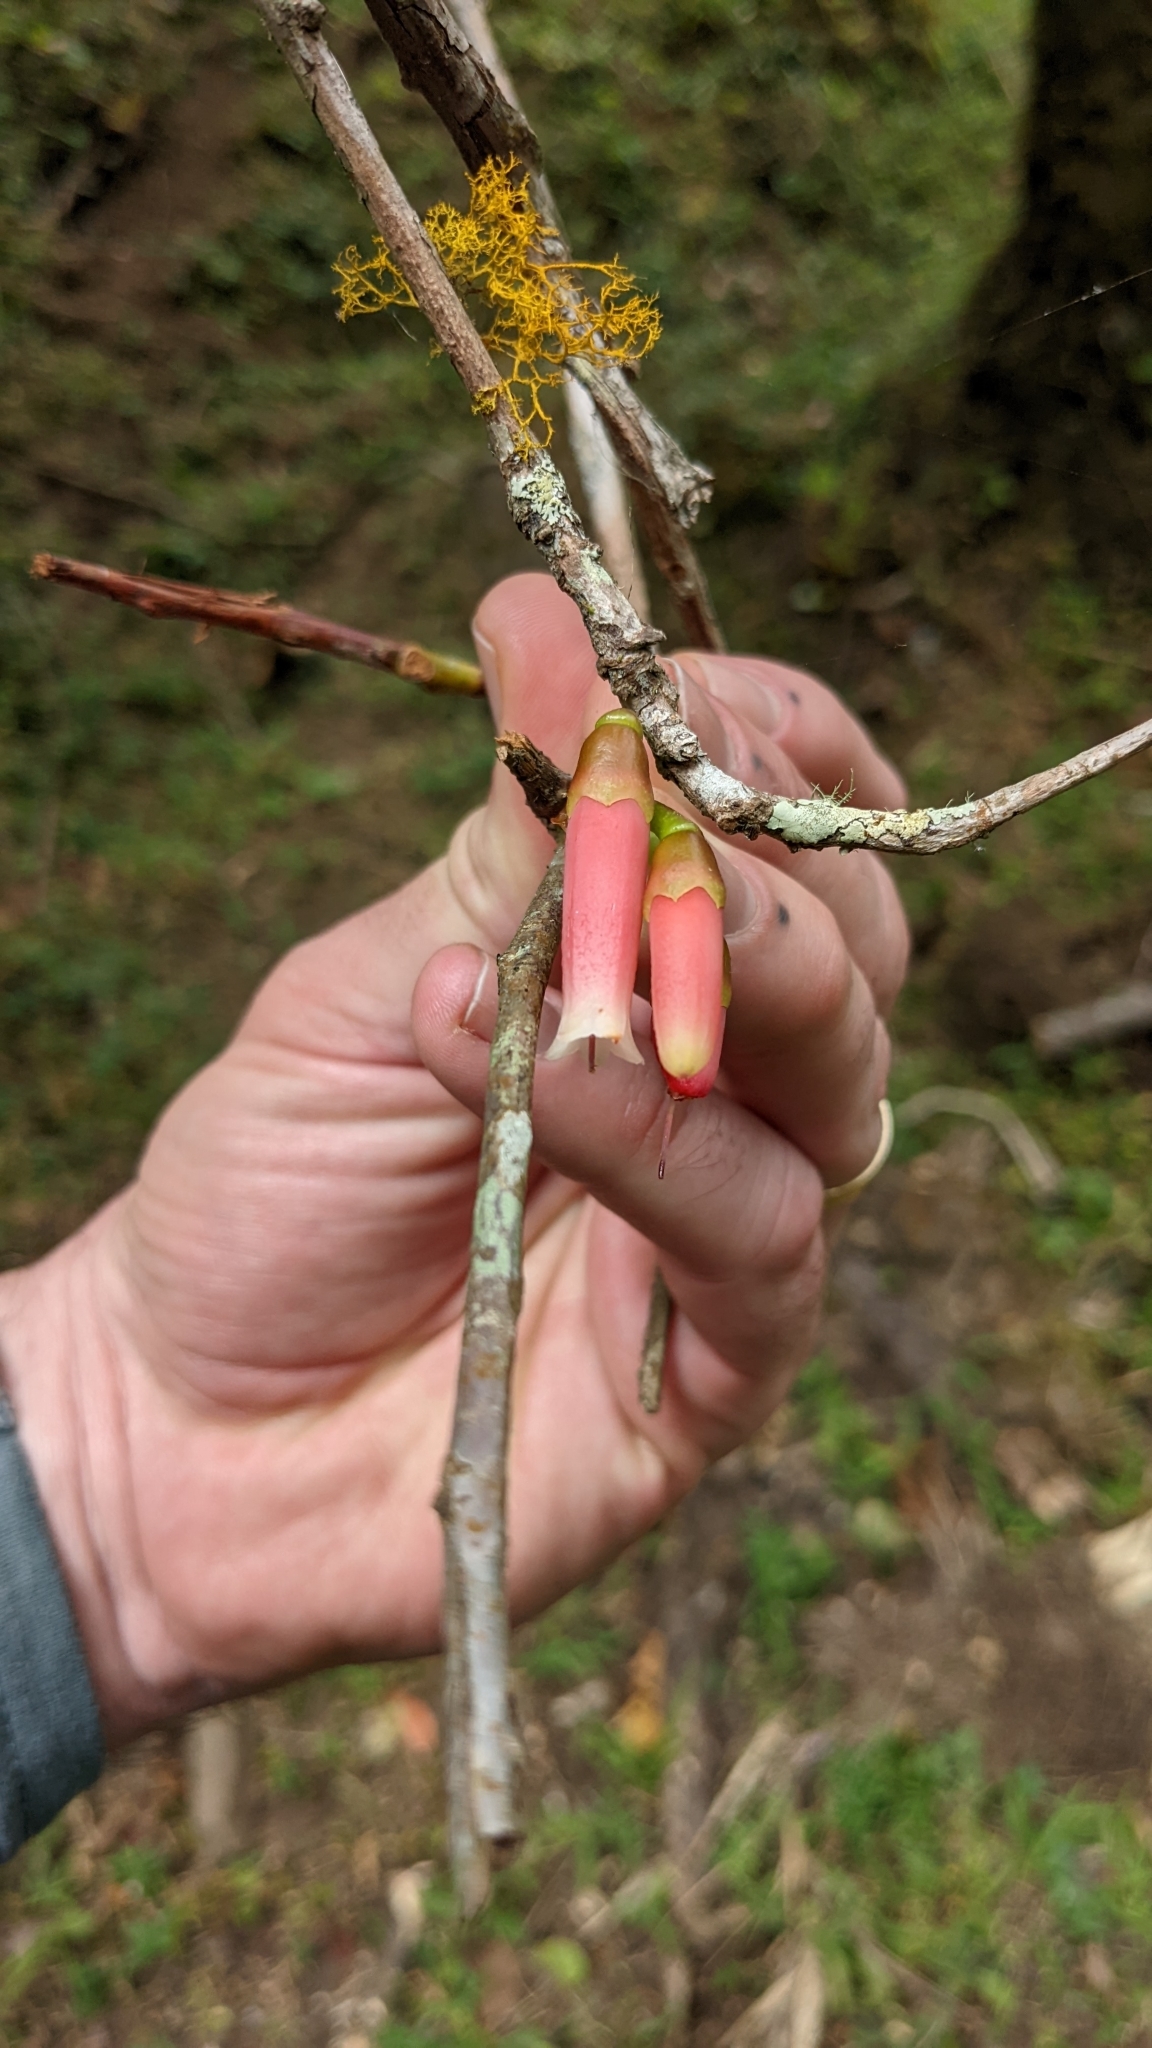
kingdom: Plantae
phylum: Tracheophyta
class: Magnoliopsida
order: Ericales
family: Ericaceae
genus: Macleania
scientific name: Macleania rupestris
